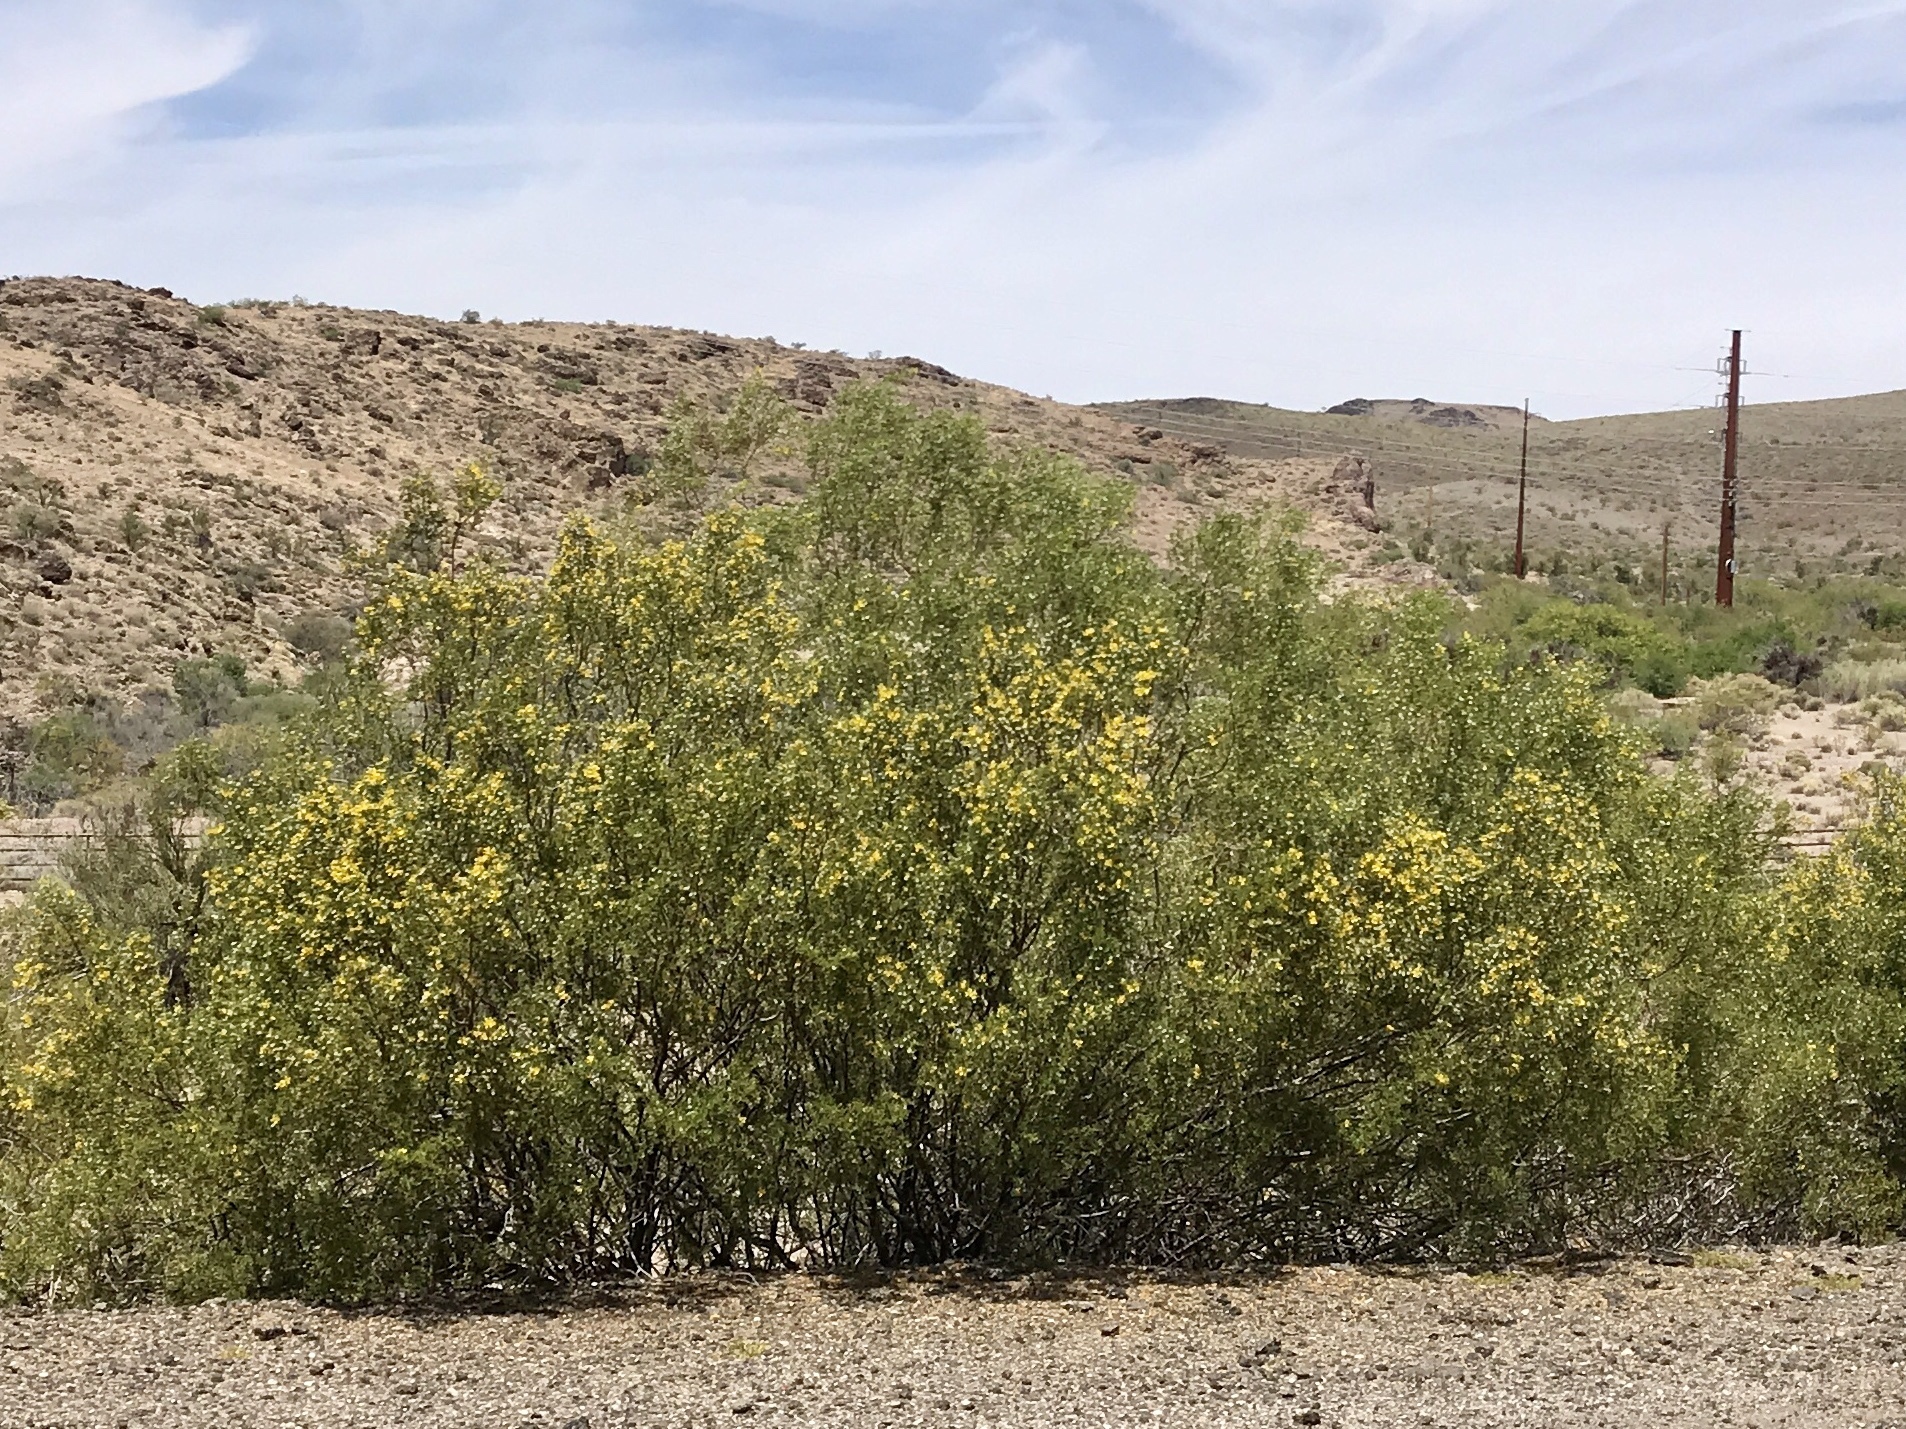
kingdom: Plantae
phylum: Tracheophyta
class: Magnoliopsida
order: Zygophyllales
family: Zygophyllaceae
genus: Larrea
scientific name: Larrea tridentata
